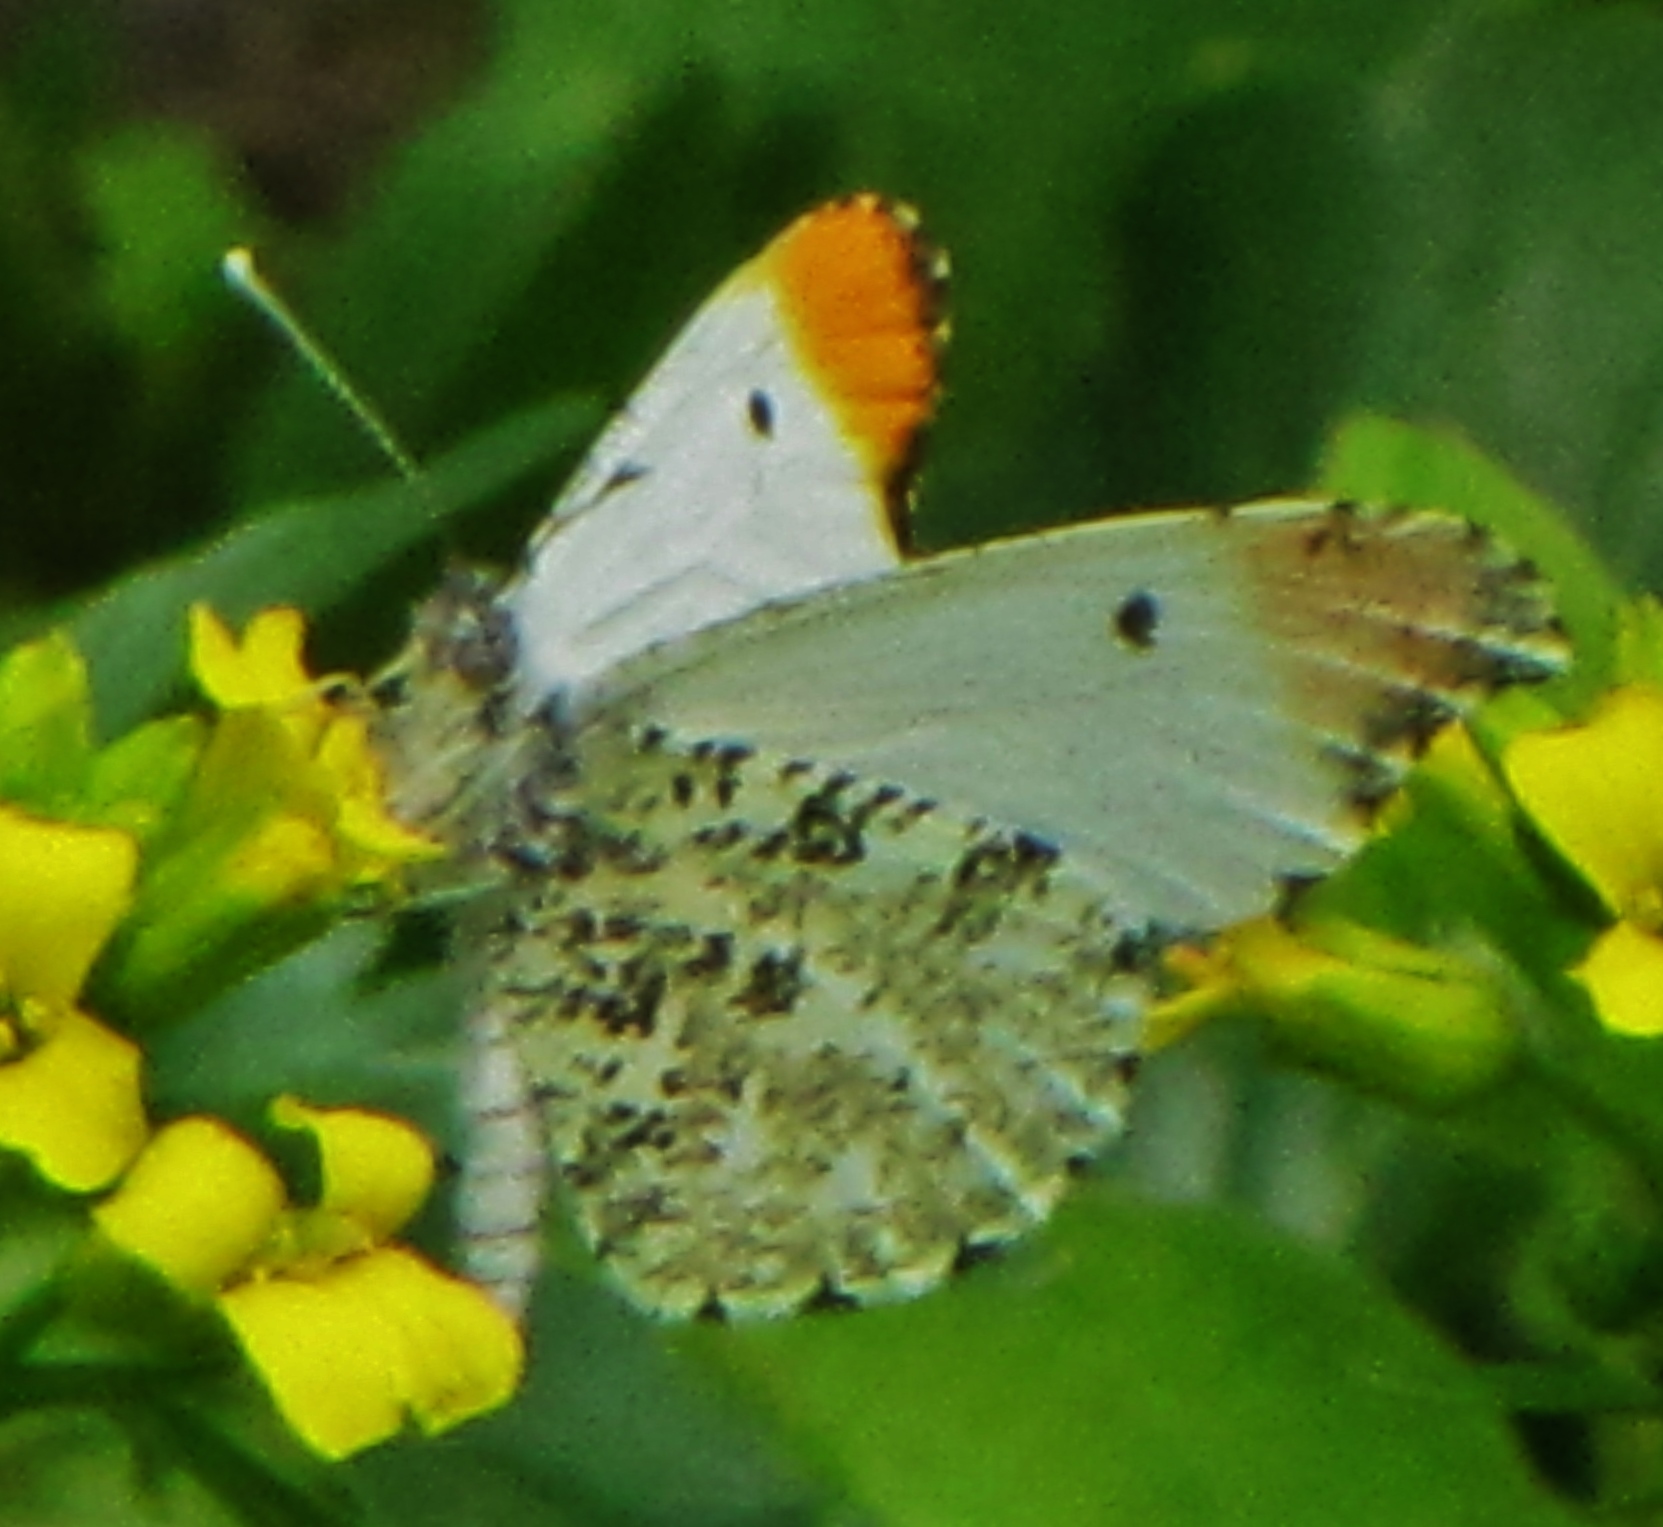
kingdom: Animalia
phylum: Arthropoda
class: Insecta
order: Lepidoptera
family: Pieridae
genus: Anthocharis
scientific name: Anthocharis midea
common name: Falcate orangetip
